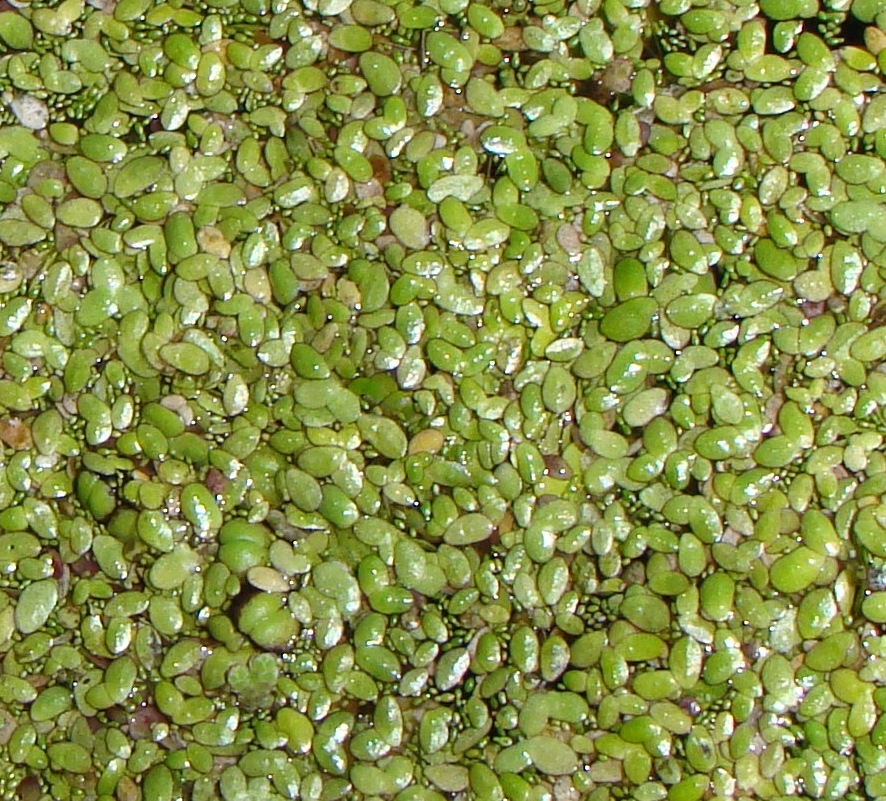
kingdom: Plantae
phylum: Tracheophyta
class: Liliopsida
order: Alismatales
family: Araceae
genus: Lemna
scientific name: Lemna
